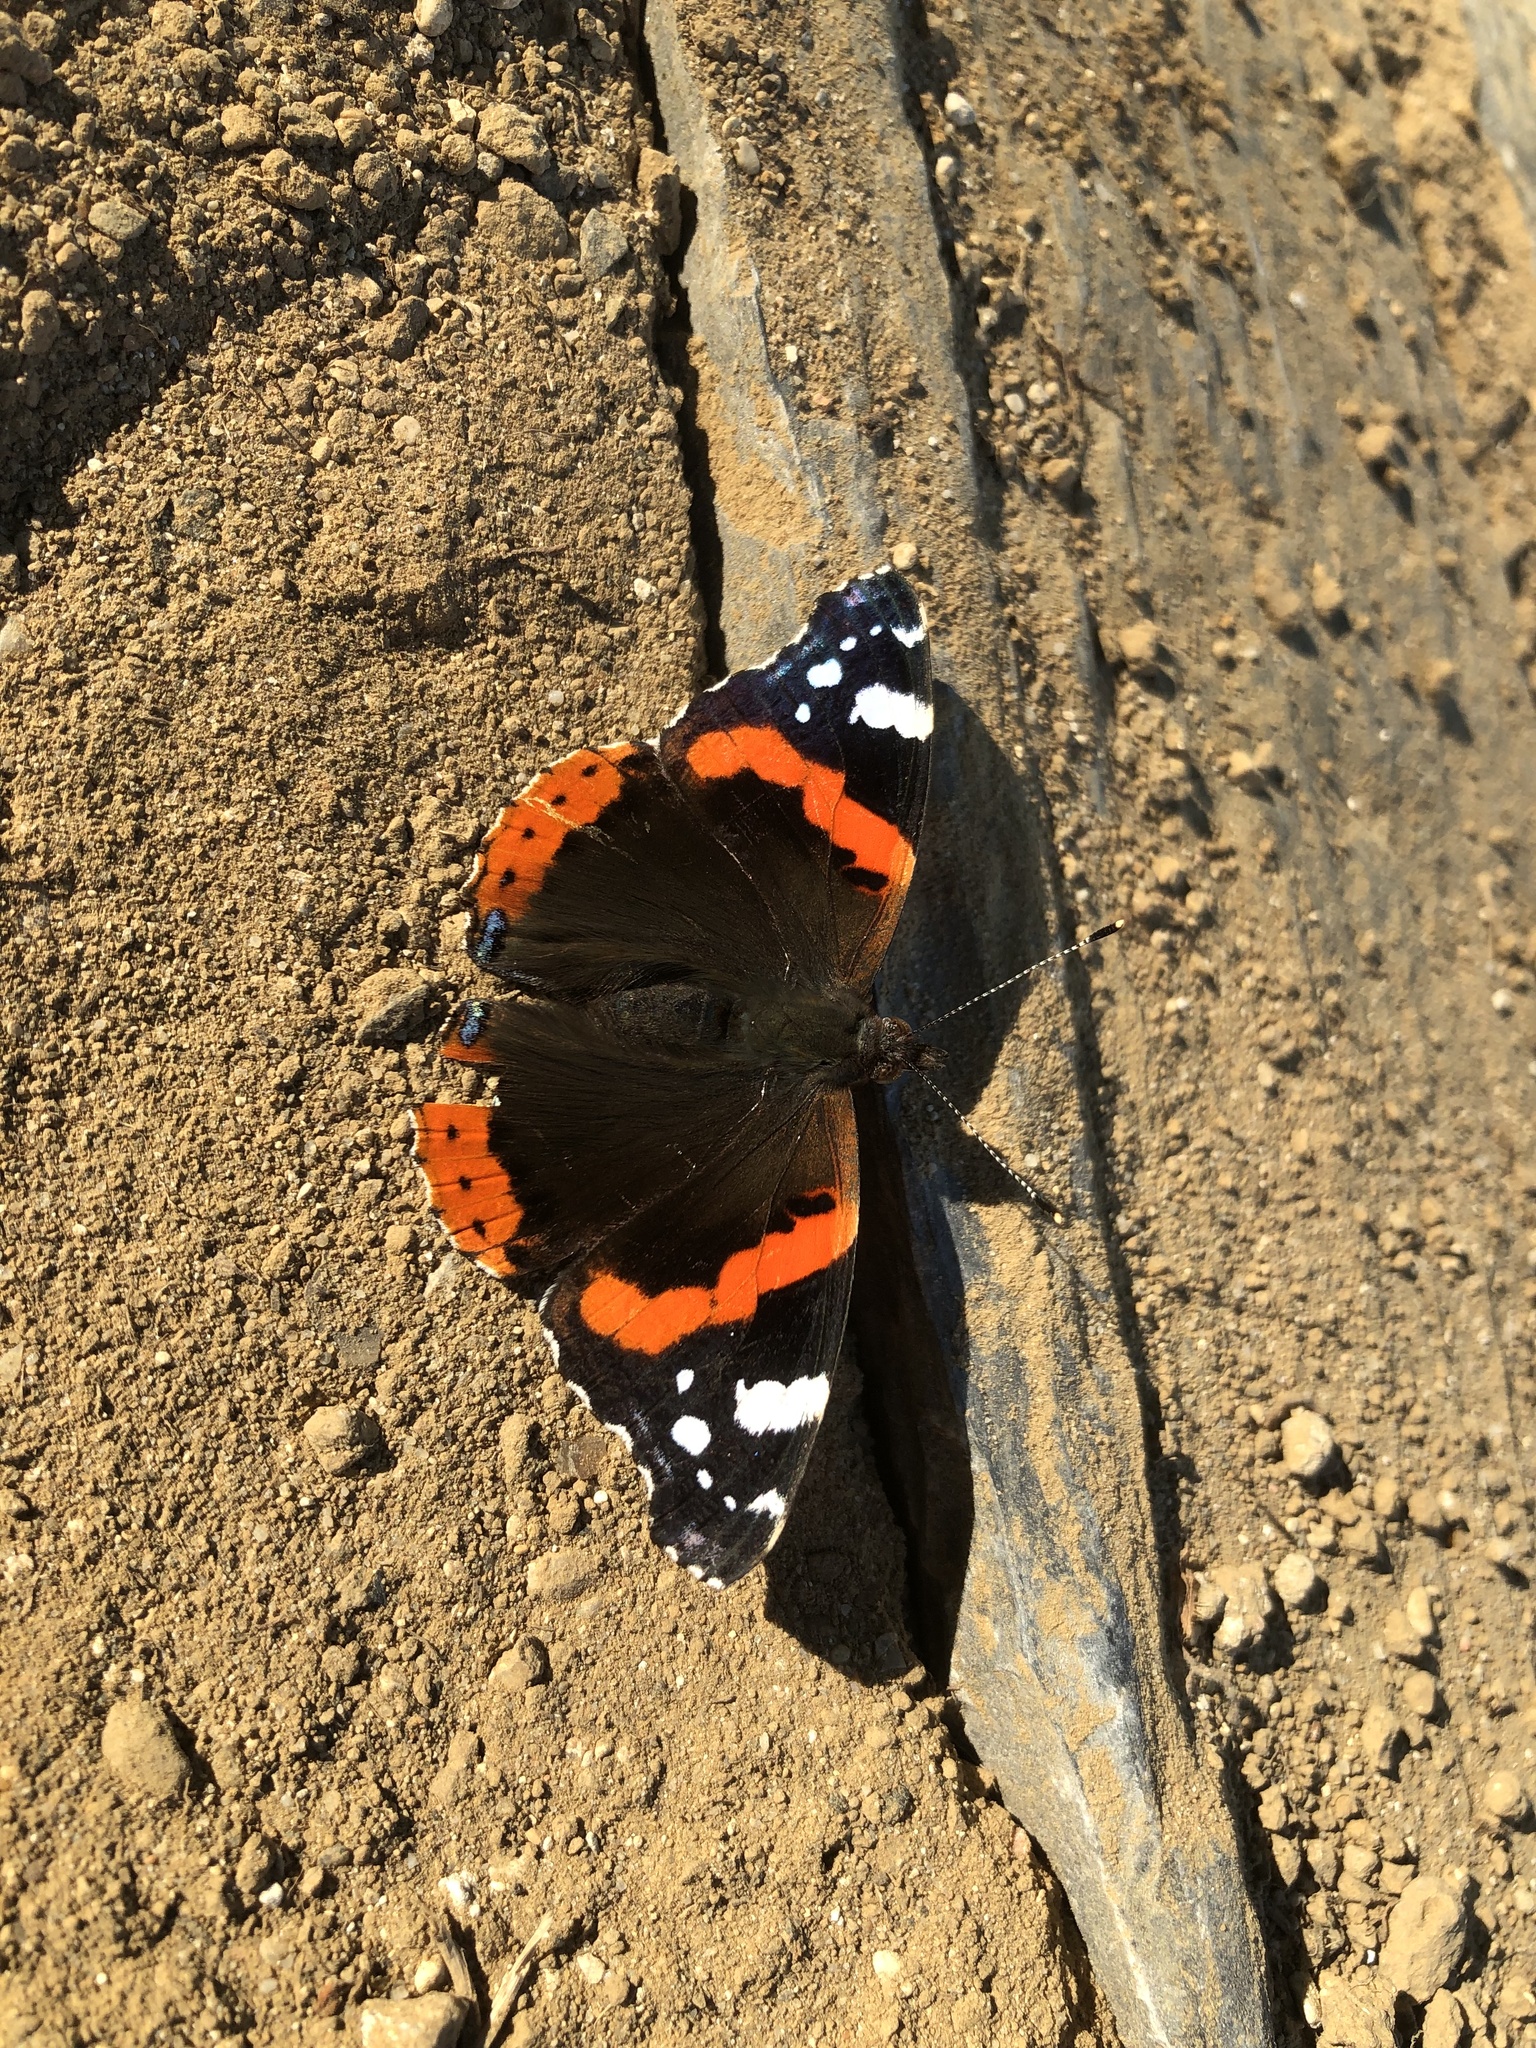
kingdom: Animalia
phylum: Arthropoda
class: Insecta
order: Lepidoptera
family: Nymphalidae
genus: Vanessa
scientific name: Vanessa atalanta
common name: Red admiral
